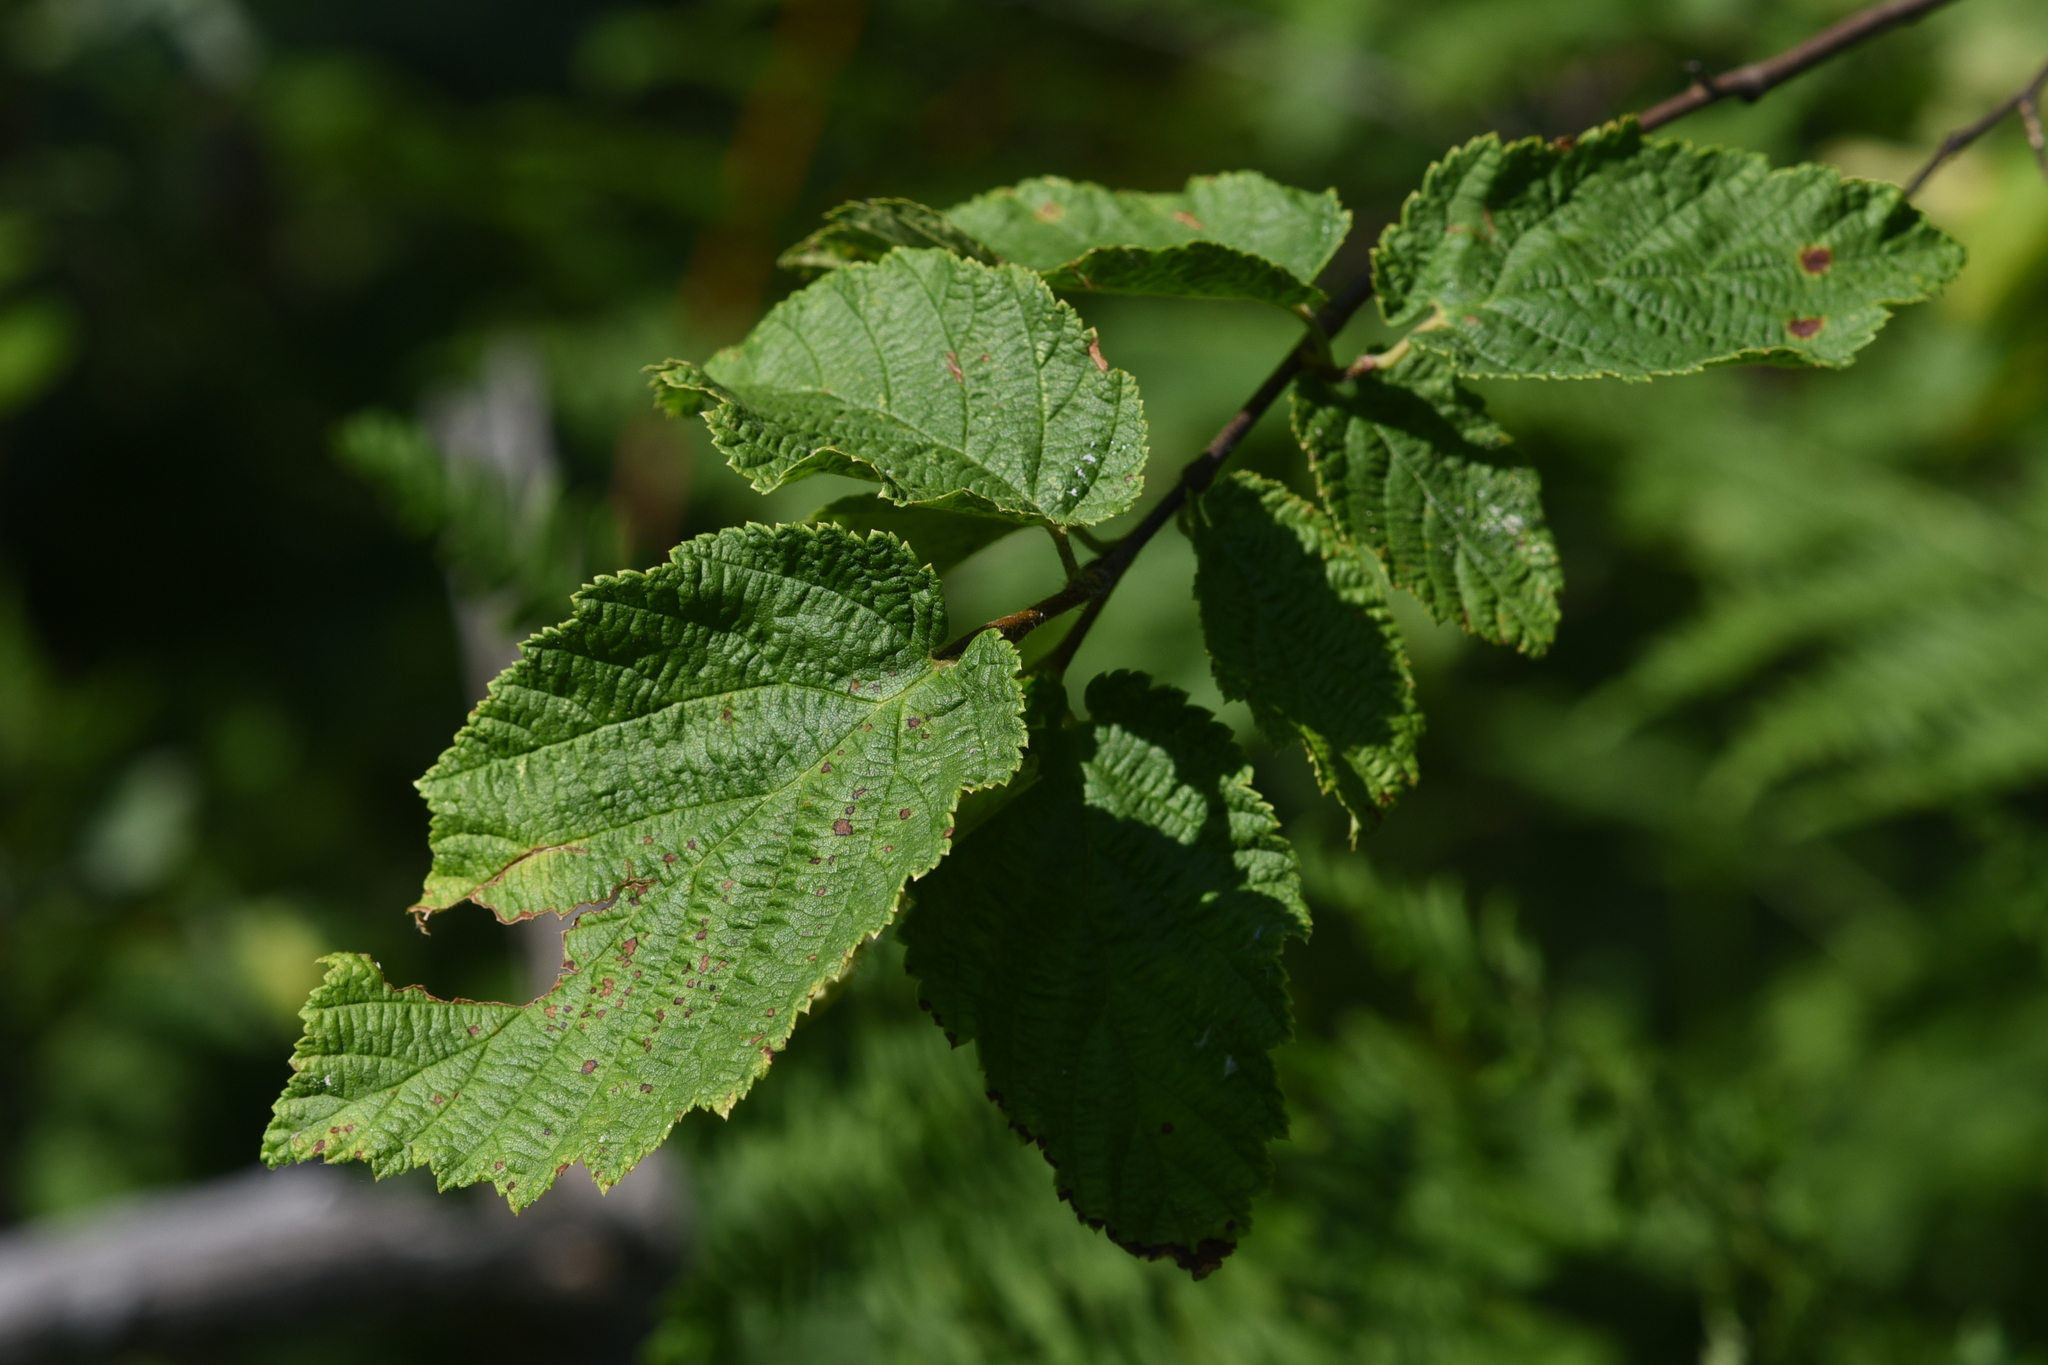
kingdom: Plantae
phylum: Tracheophyta
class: Magnoliopsida
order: Fagales
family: Betulaceae
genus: Corylus
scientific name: Corylus cornuta
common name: Beaked hazel
